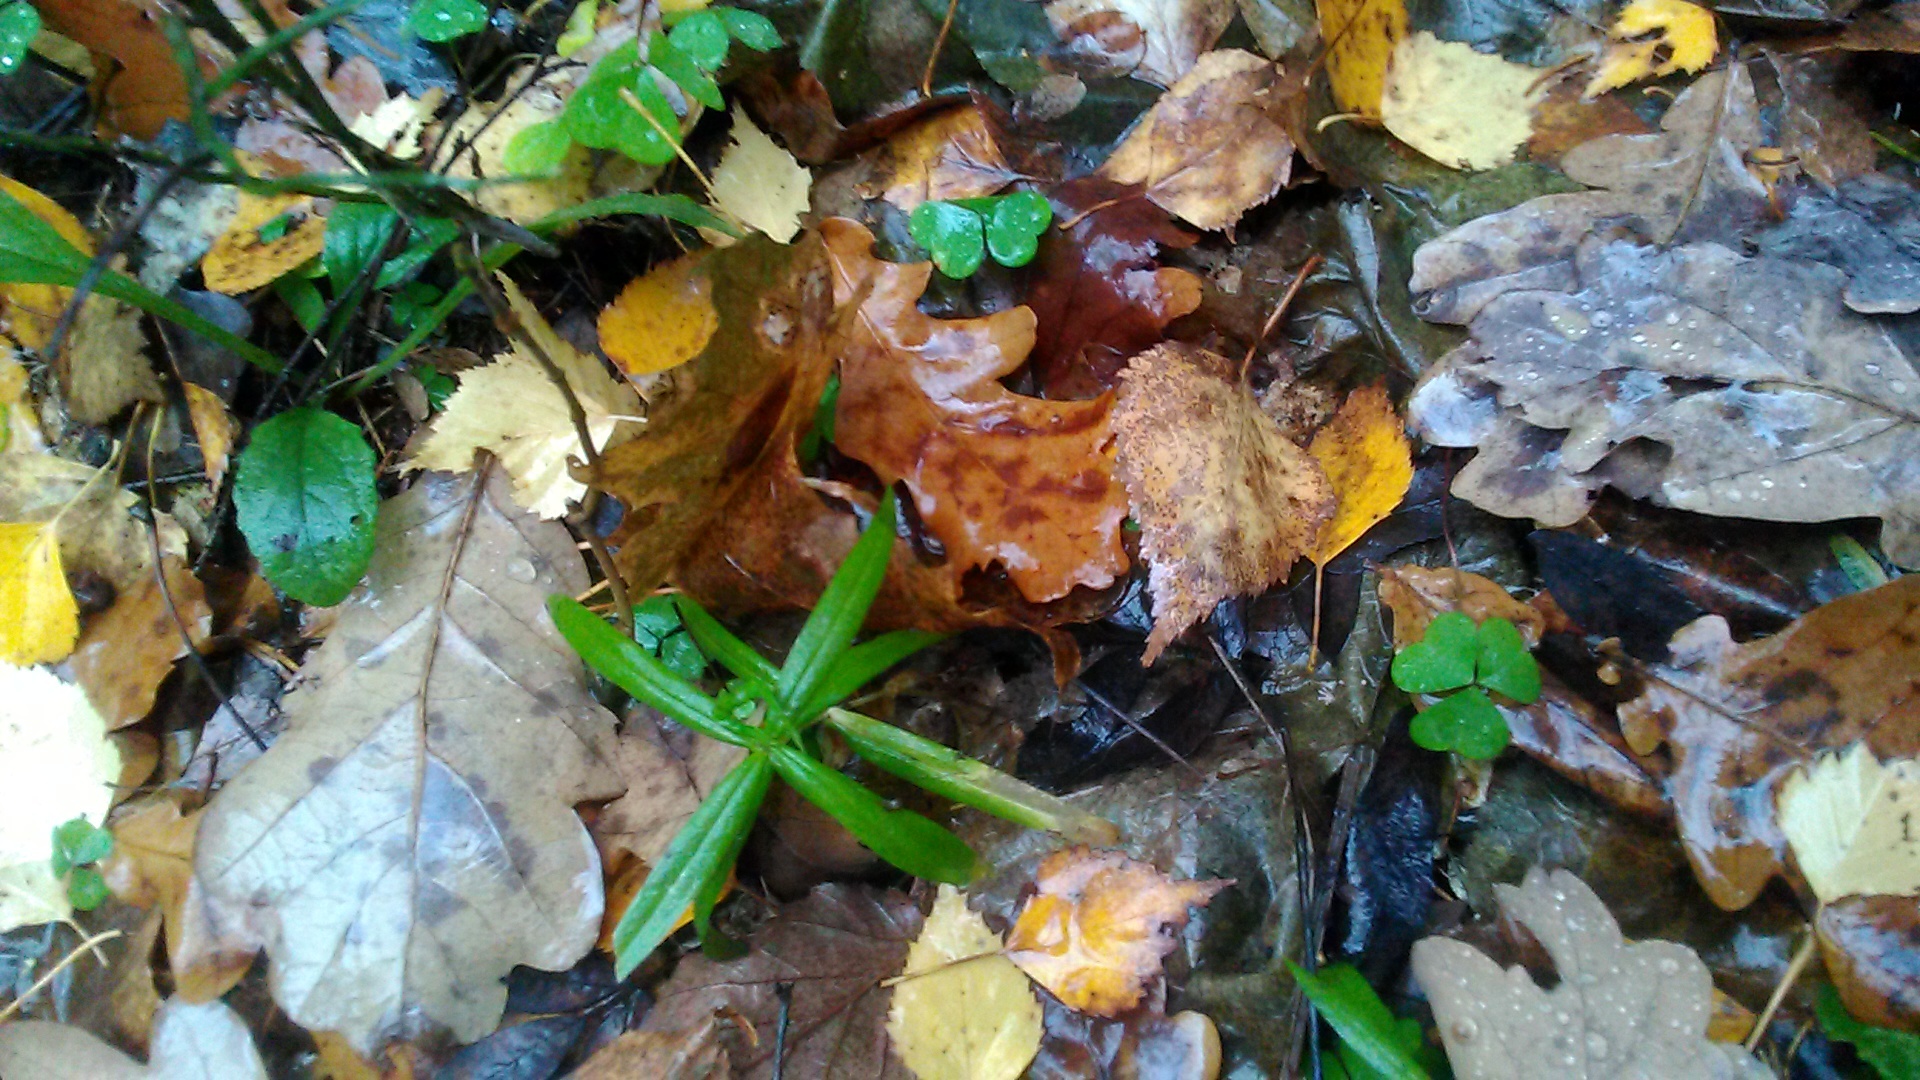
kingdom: Plantae
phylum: Tracheophyta
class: Magnoliopsida
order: Caryophyllales
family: Caryophyllaceae
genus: Rabelera
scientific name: Rabelera holostea
